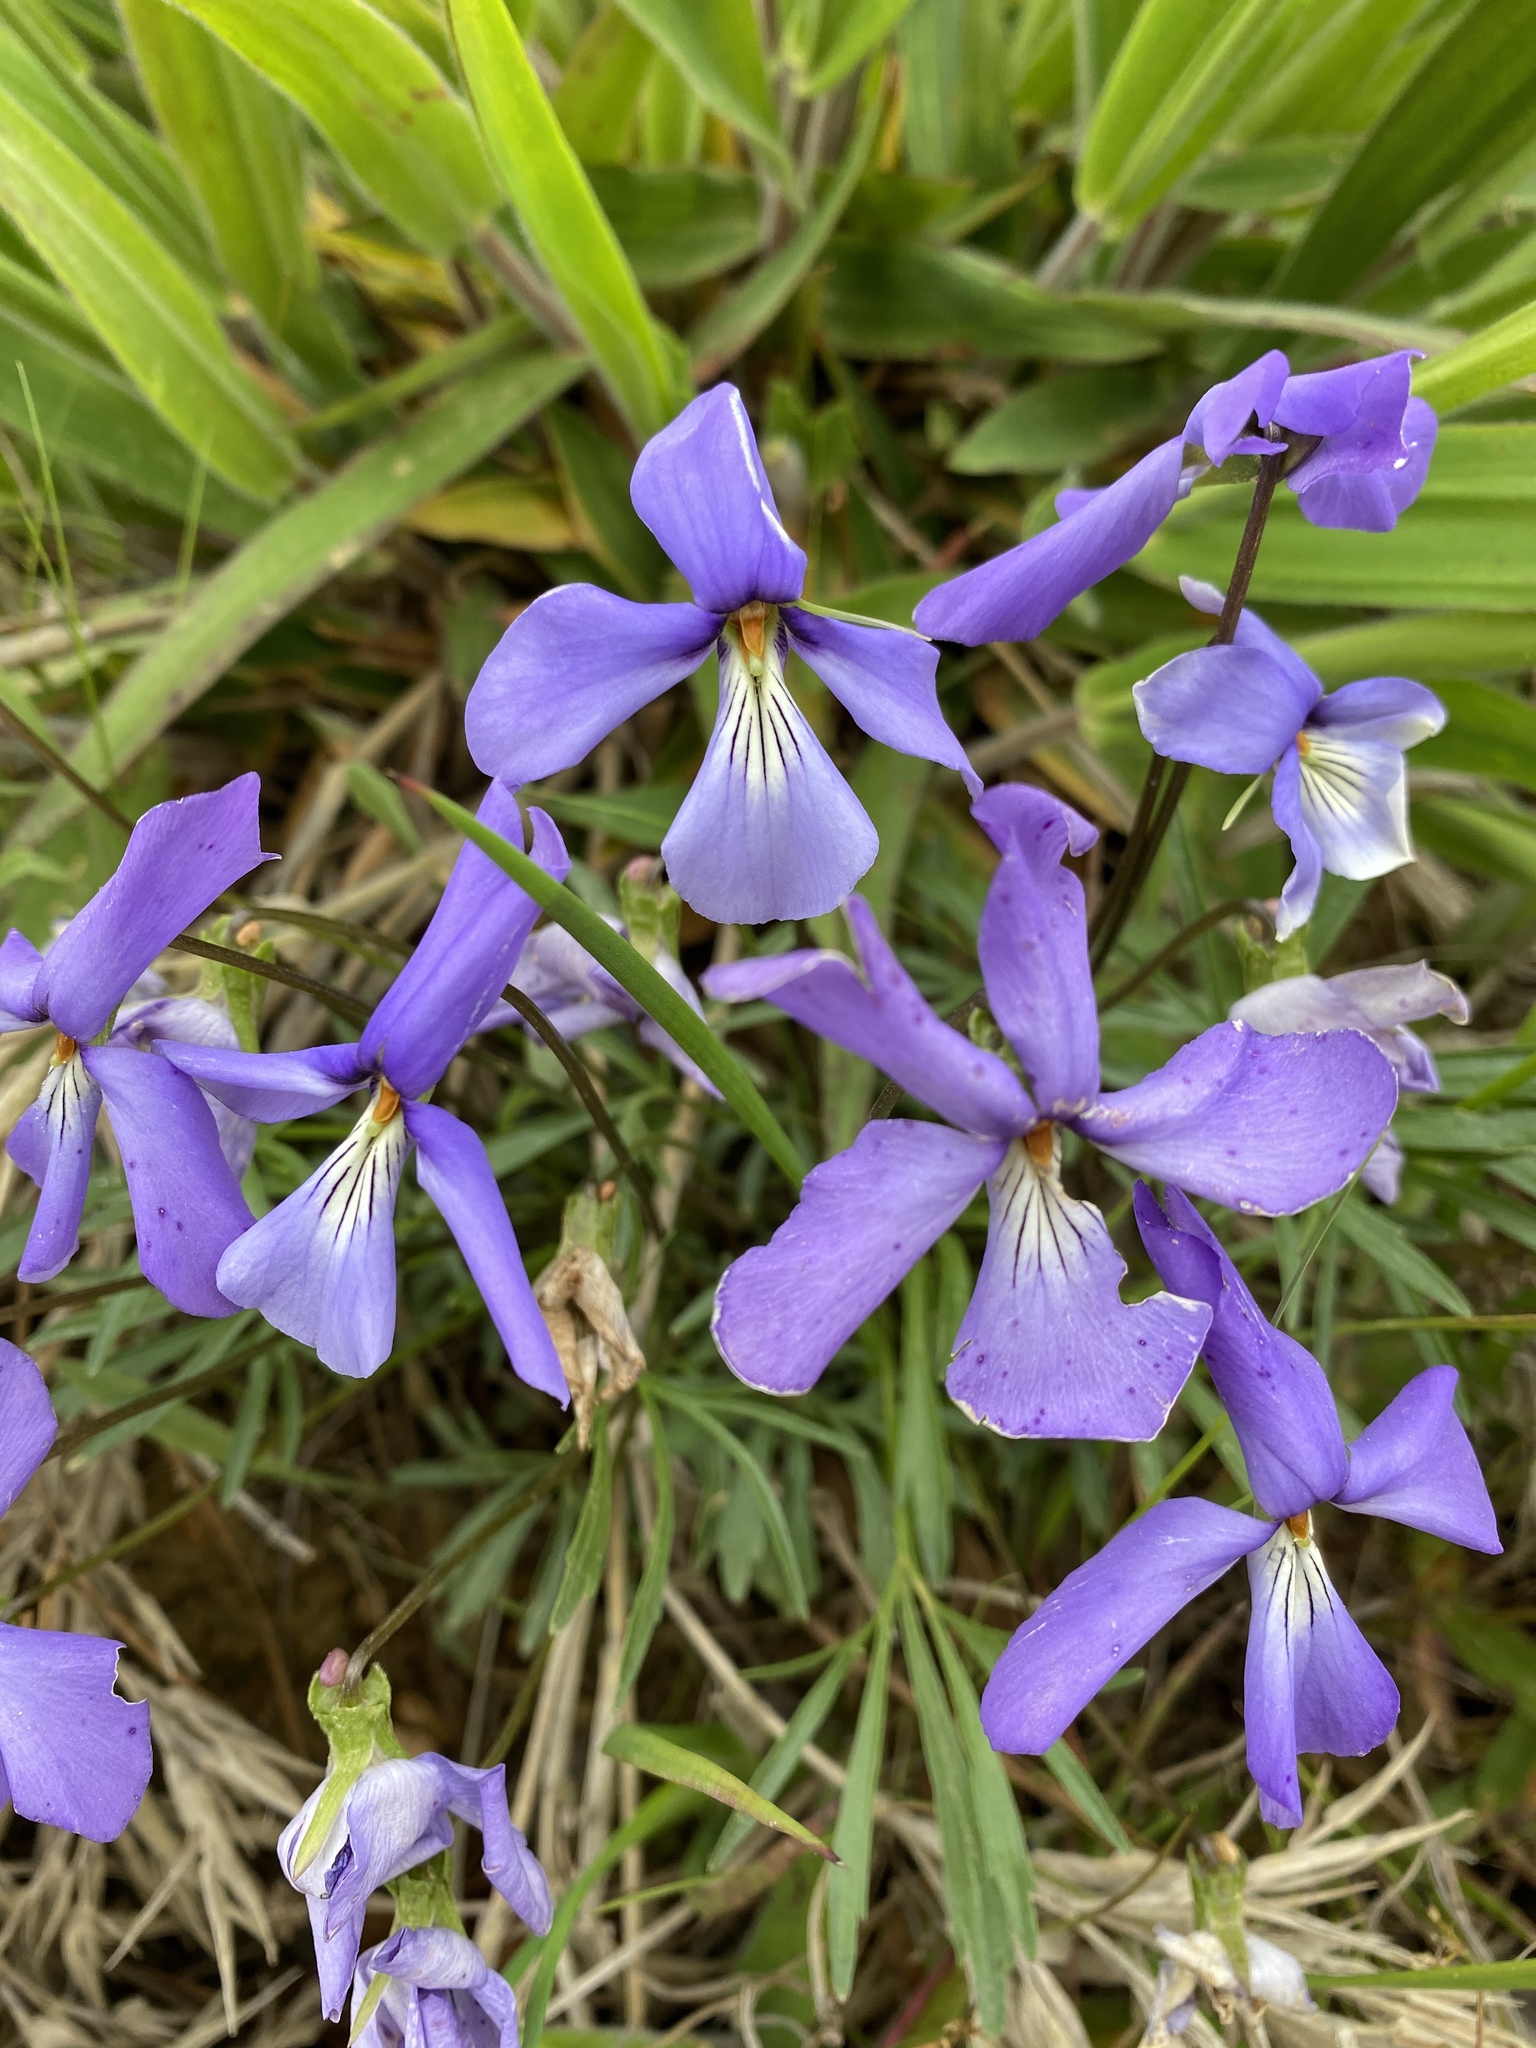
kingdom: Plantae
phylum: Tracheophyta
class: Magnoliopsida
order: Malpighiales
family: Violaceae
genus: Viola
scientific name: Viola pedata
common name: Pansy violet
